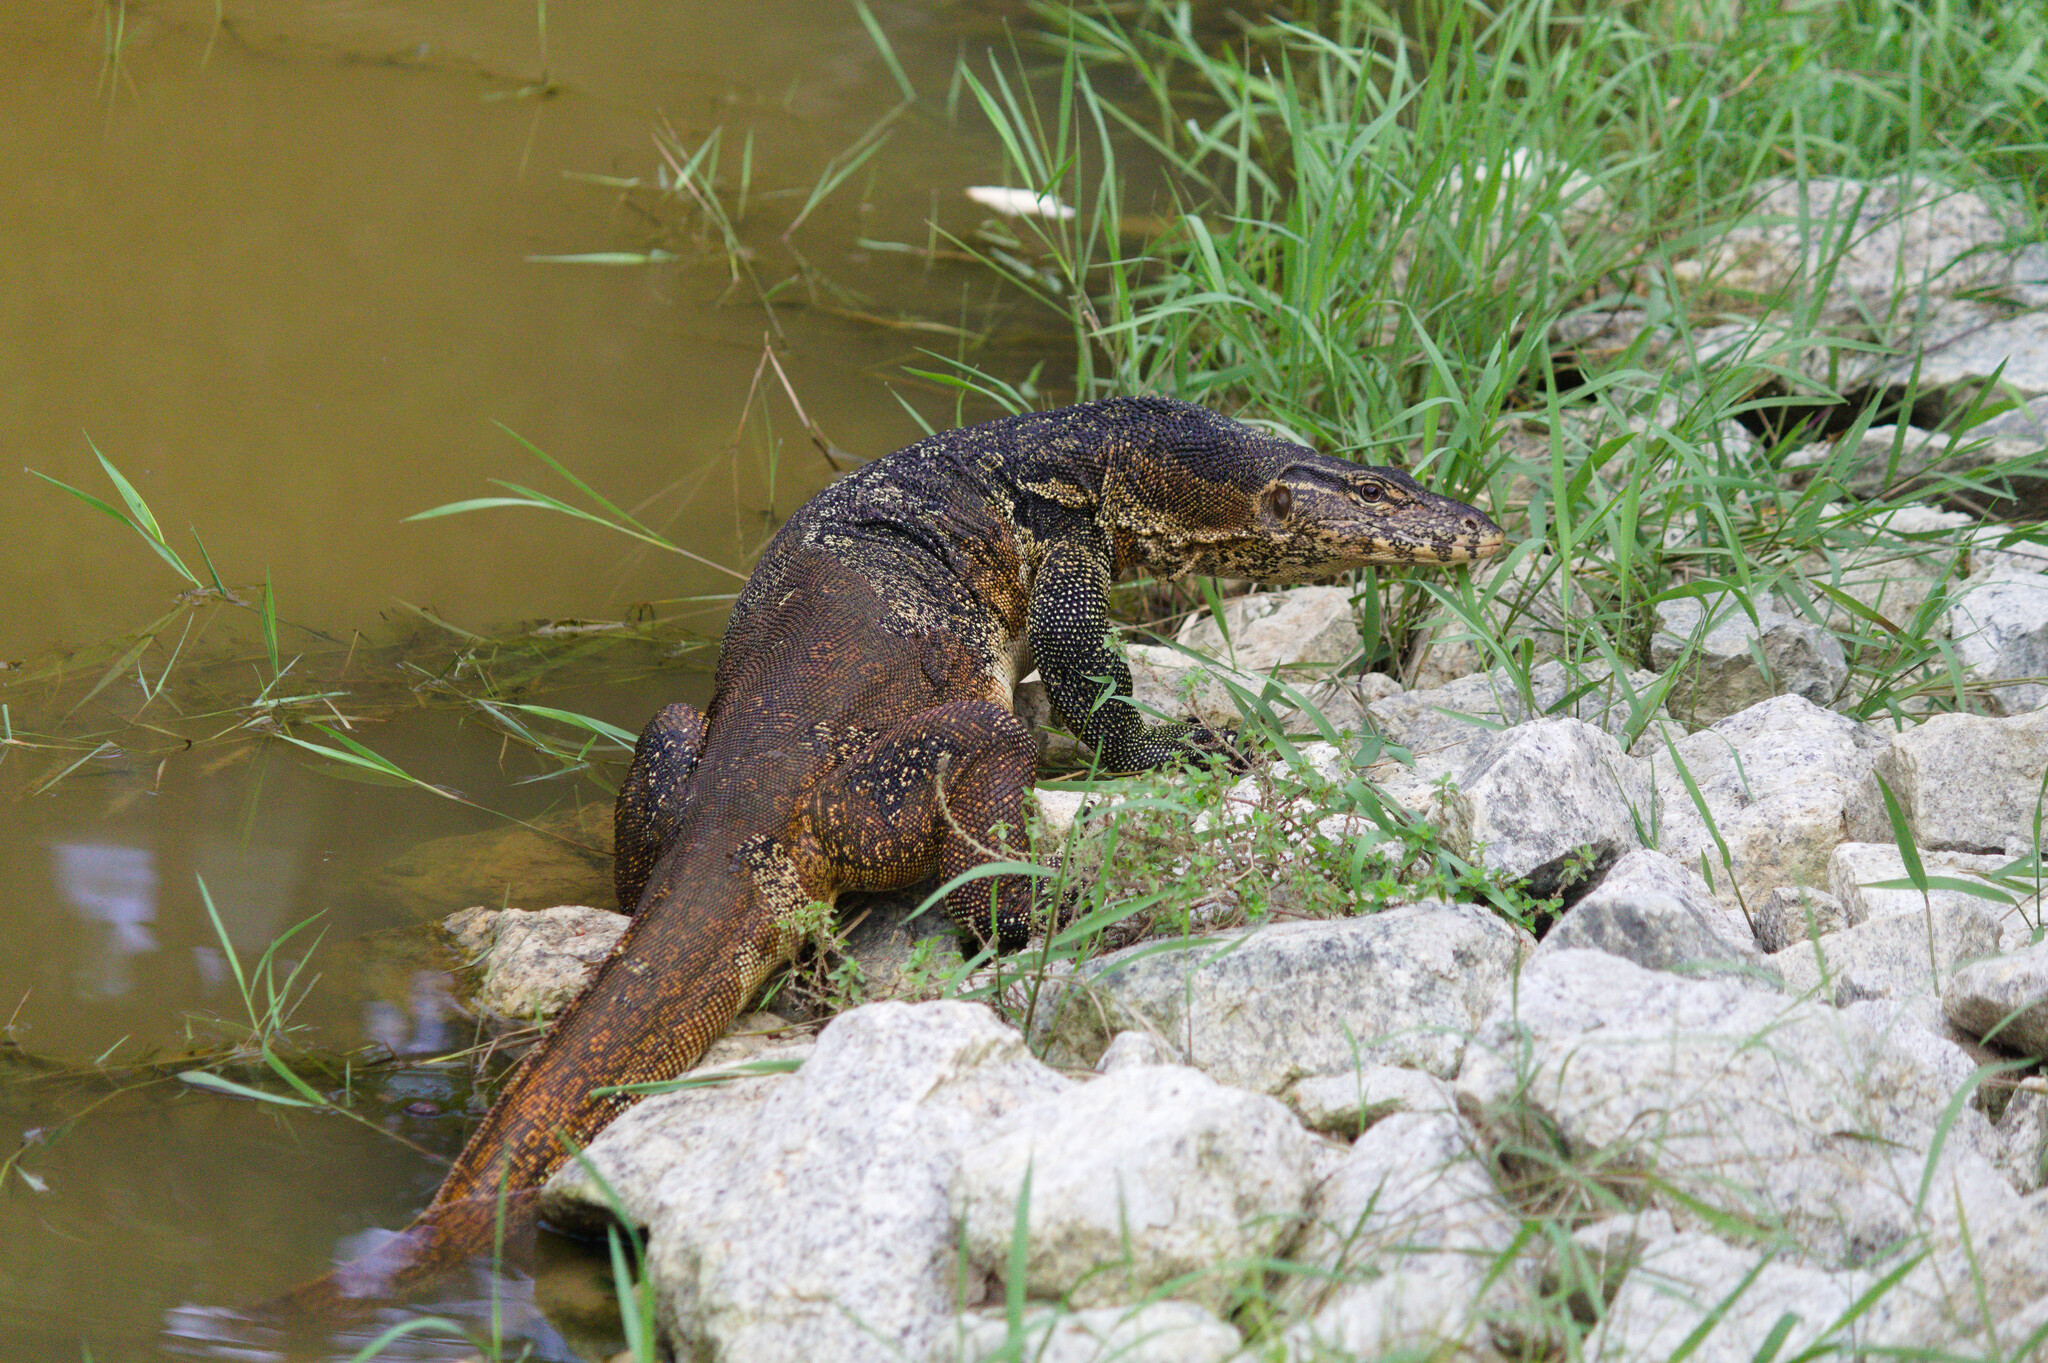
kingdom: Animalia
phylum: Chordata
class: Squamata
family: Varanidae
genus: Varanus
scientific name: Varanus salvator
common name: Common water monitor
